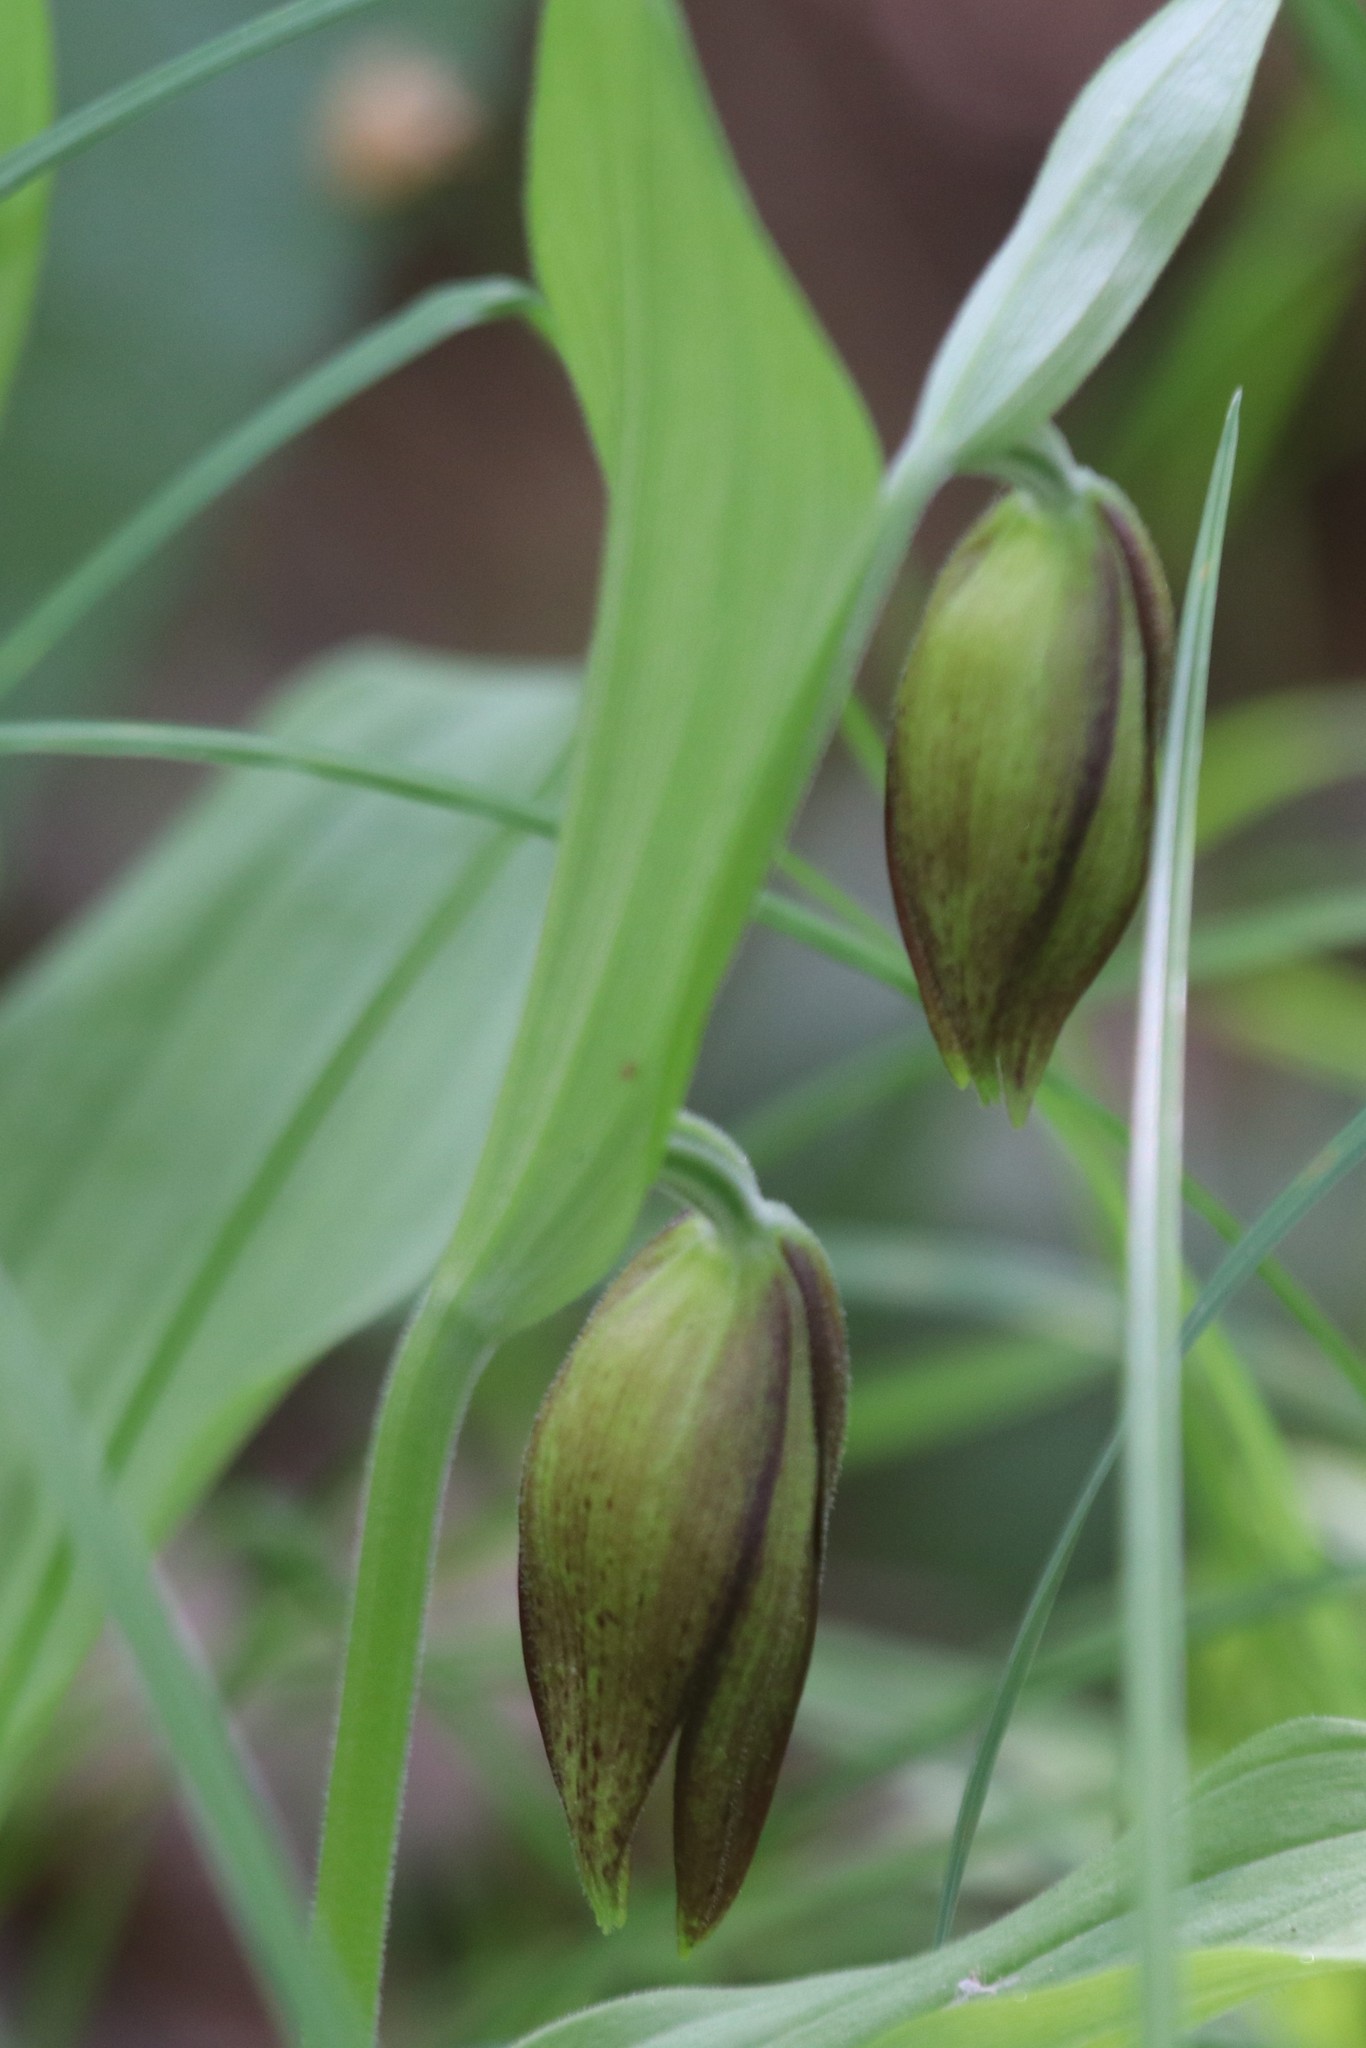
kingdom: Plantae
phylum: Tracheophyta
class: Liliopsida
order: Asparagales
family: Orchidaceae
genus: Cypripedium
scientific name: Cypripedium calceolus
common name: Lady's-slipper
